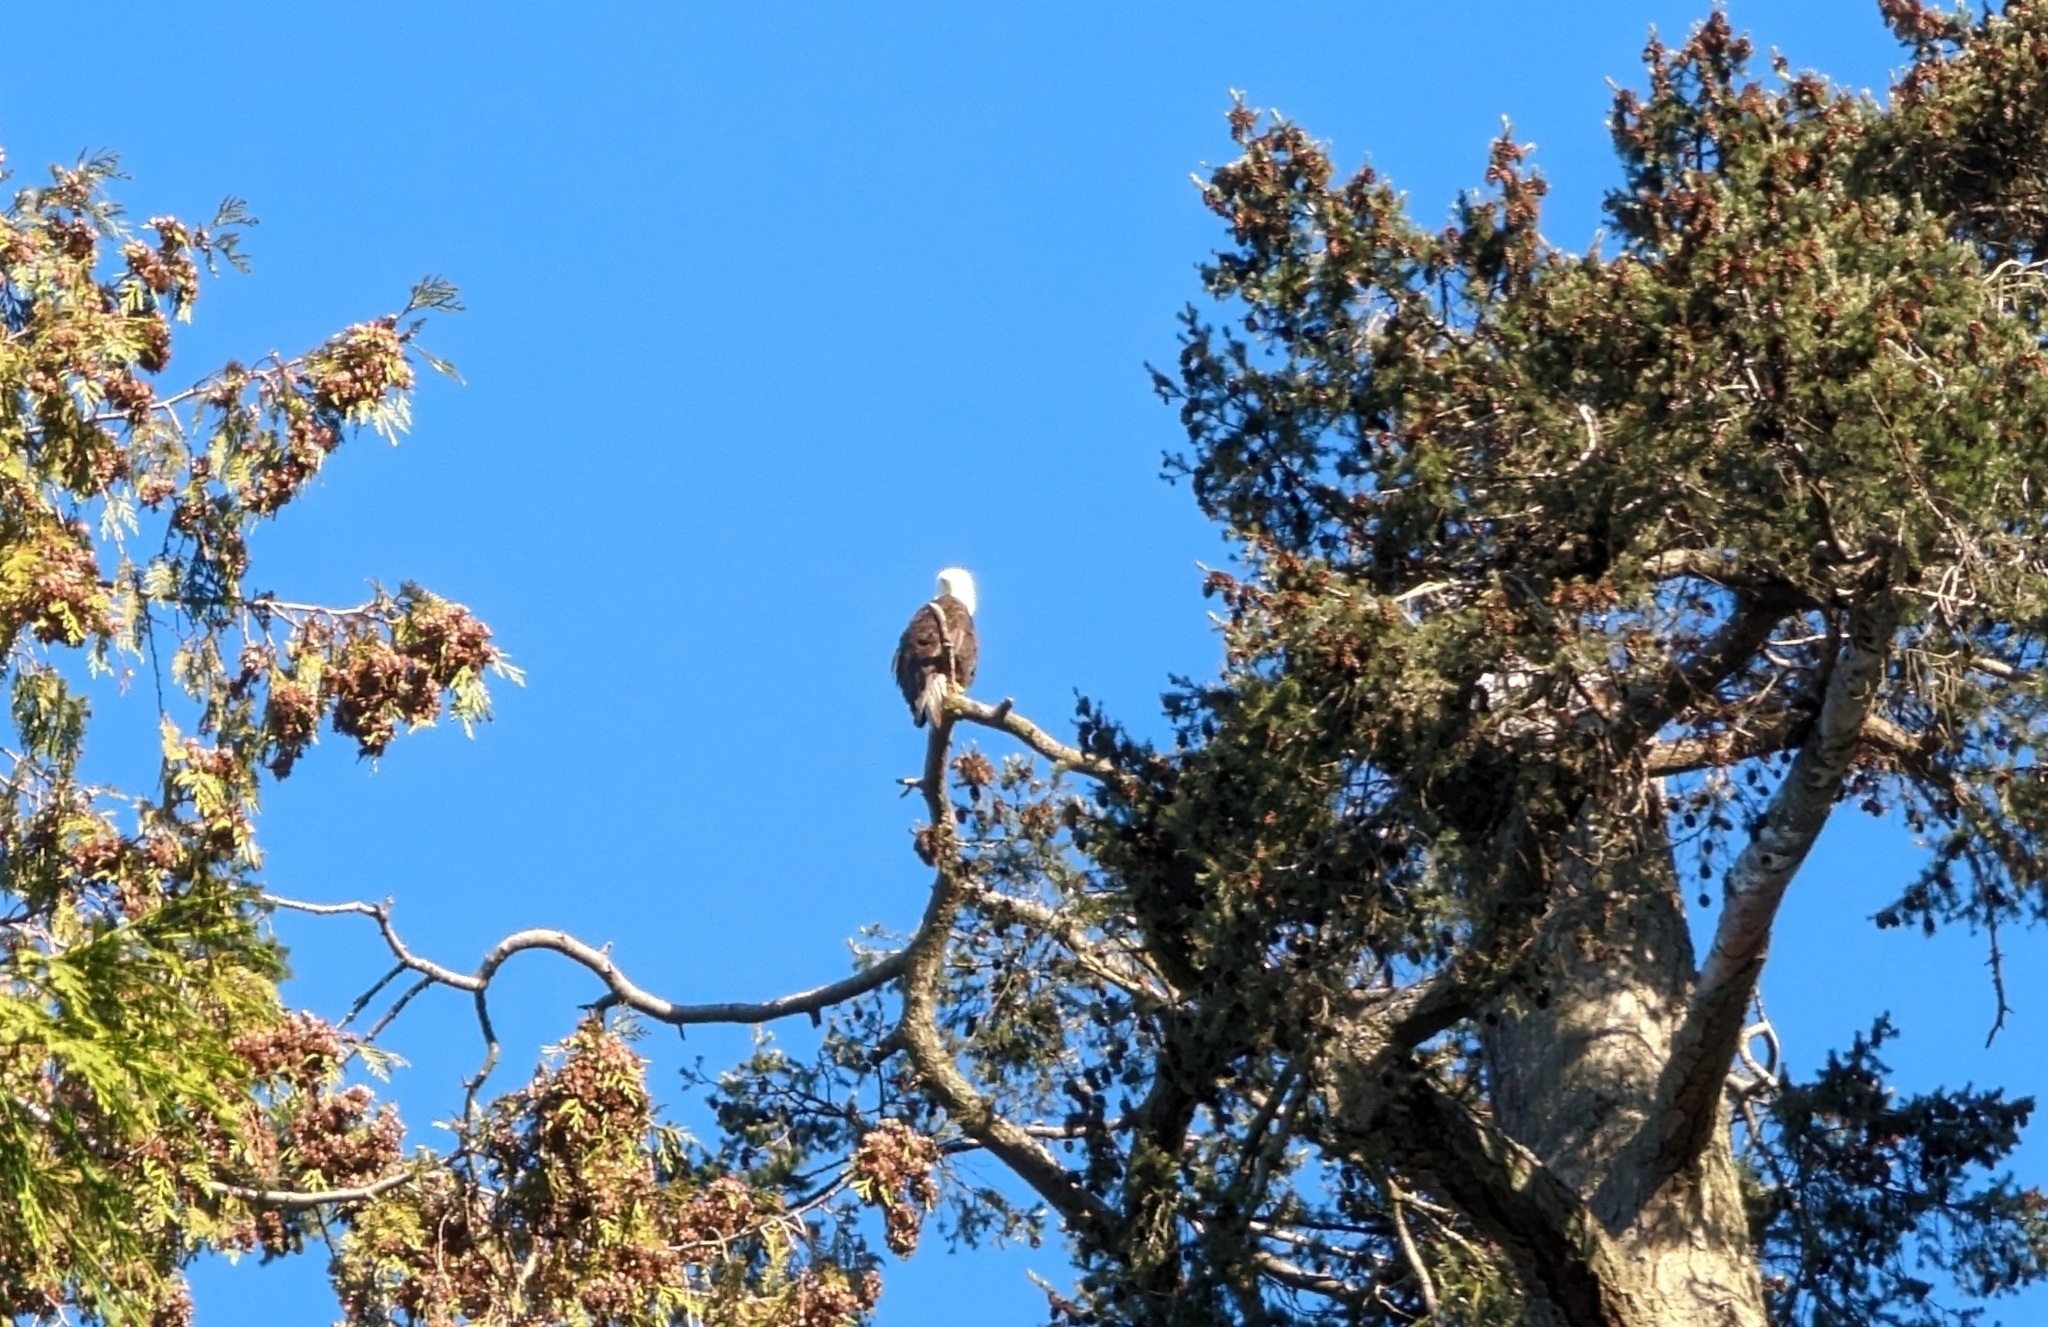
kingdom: Animalia
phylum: Chordata
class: Aves
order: Accipitriformes
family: Accipitridae
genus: Haliaeetus
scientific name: Haliaeetus leucocephalus
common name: Bald eagle
